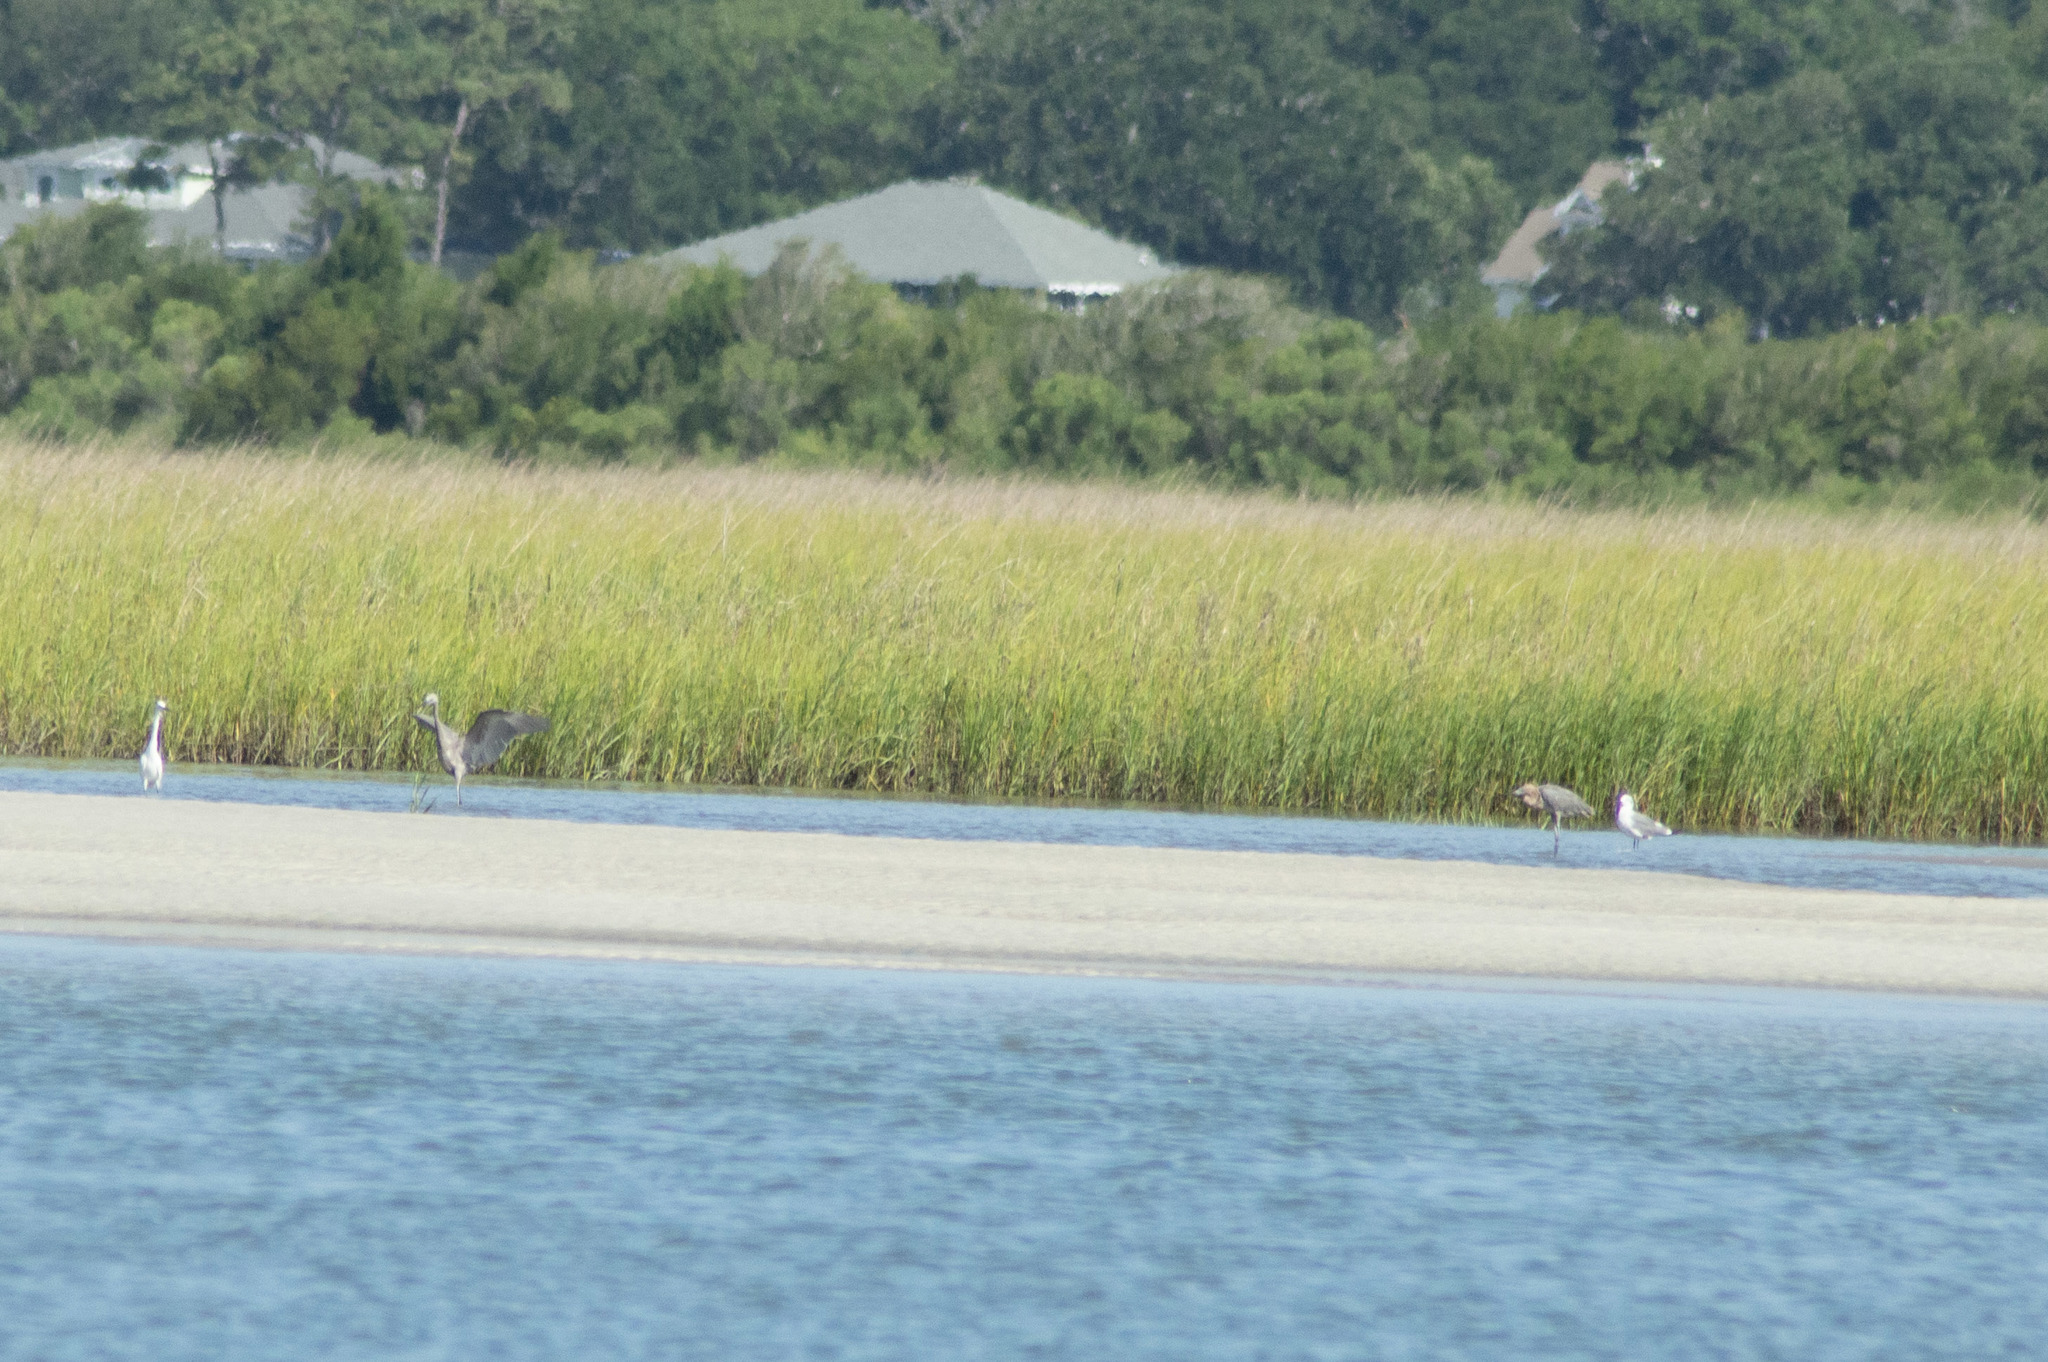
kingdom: Animalia
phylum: Chordata
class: Aves
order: Pelecaniformes
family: Ardeidae
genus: Egretta
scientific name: Egretta rufescens
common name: Reddish egret
